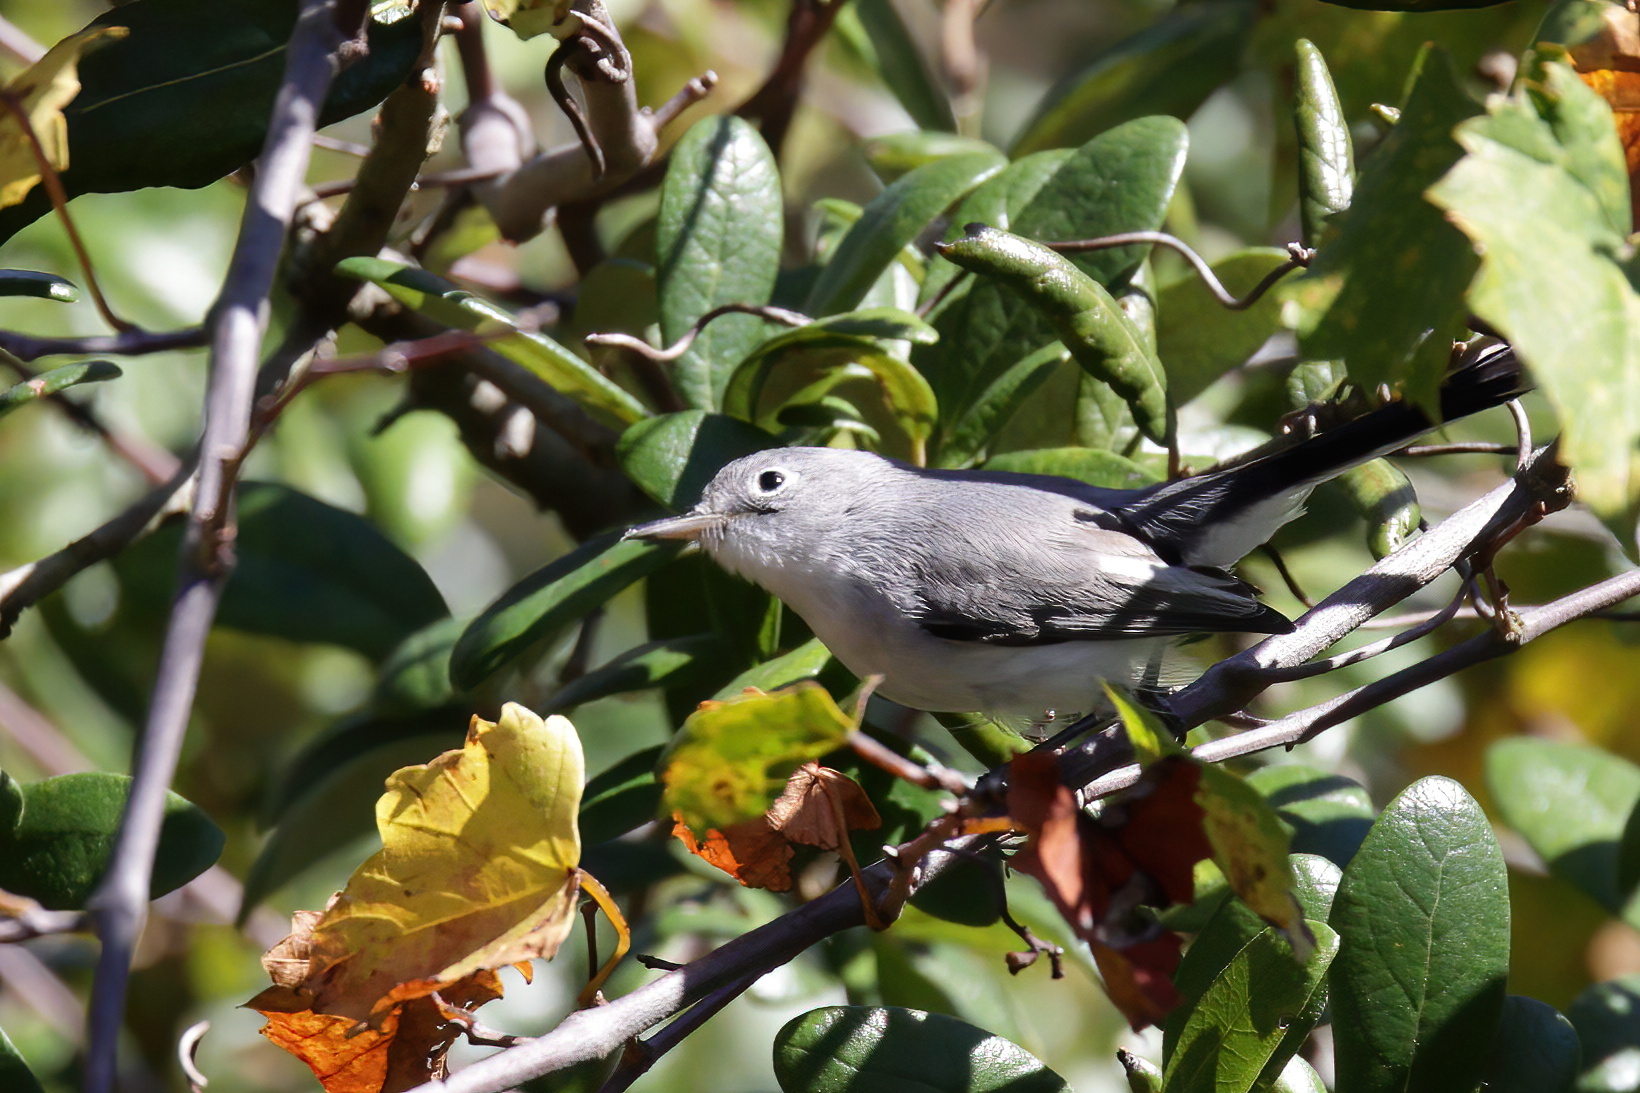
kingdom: Animalia
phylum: Chordata
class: Aves
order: Passeriformes
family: Polioptilidae
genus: Polioptila
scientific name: Polioptila caerulea
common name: Blue-gray gnatcatcher
